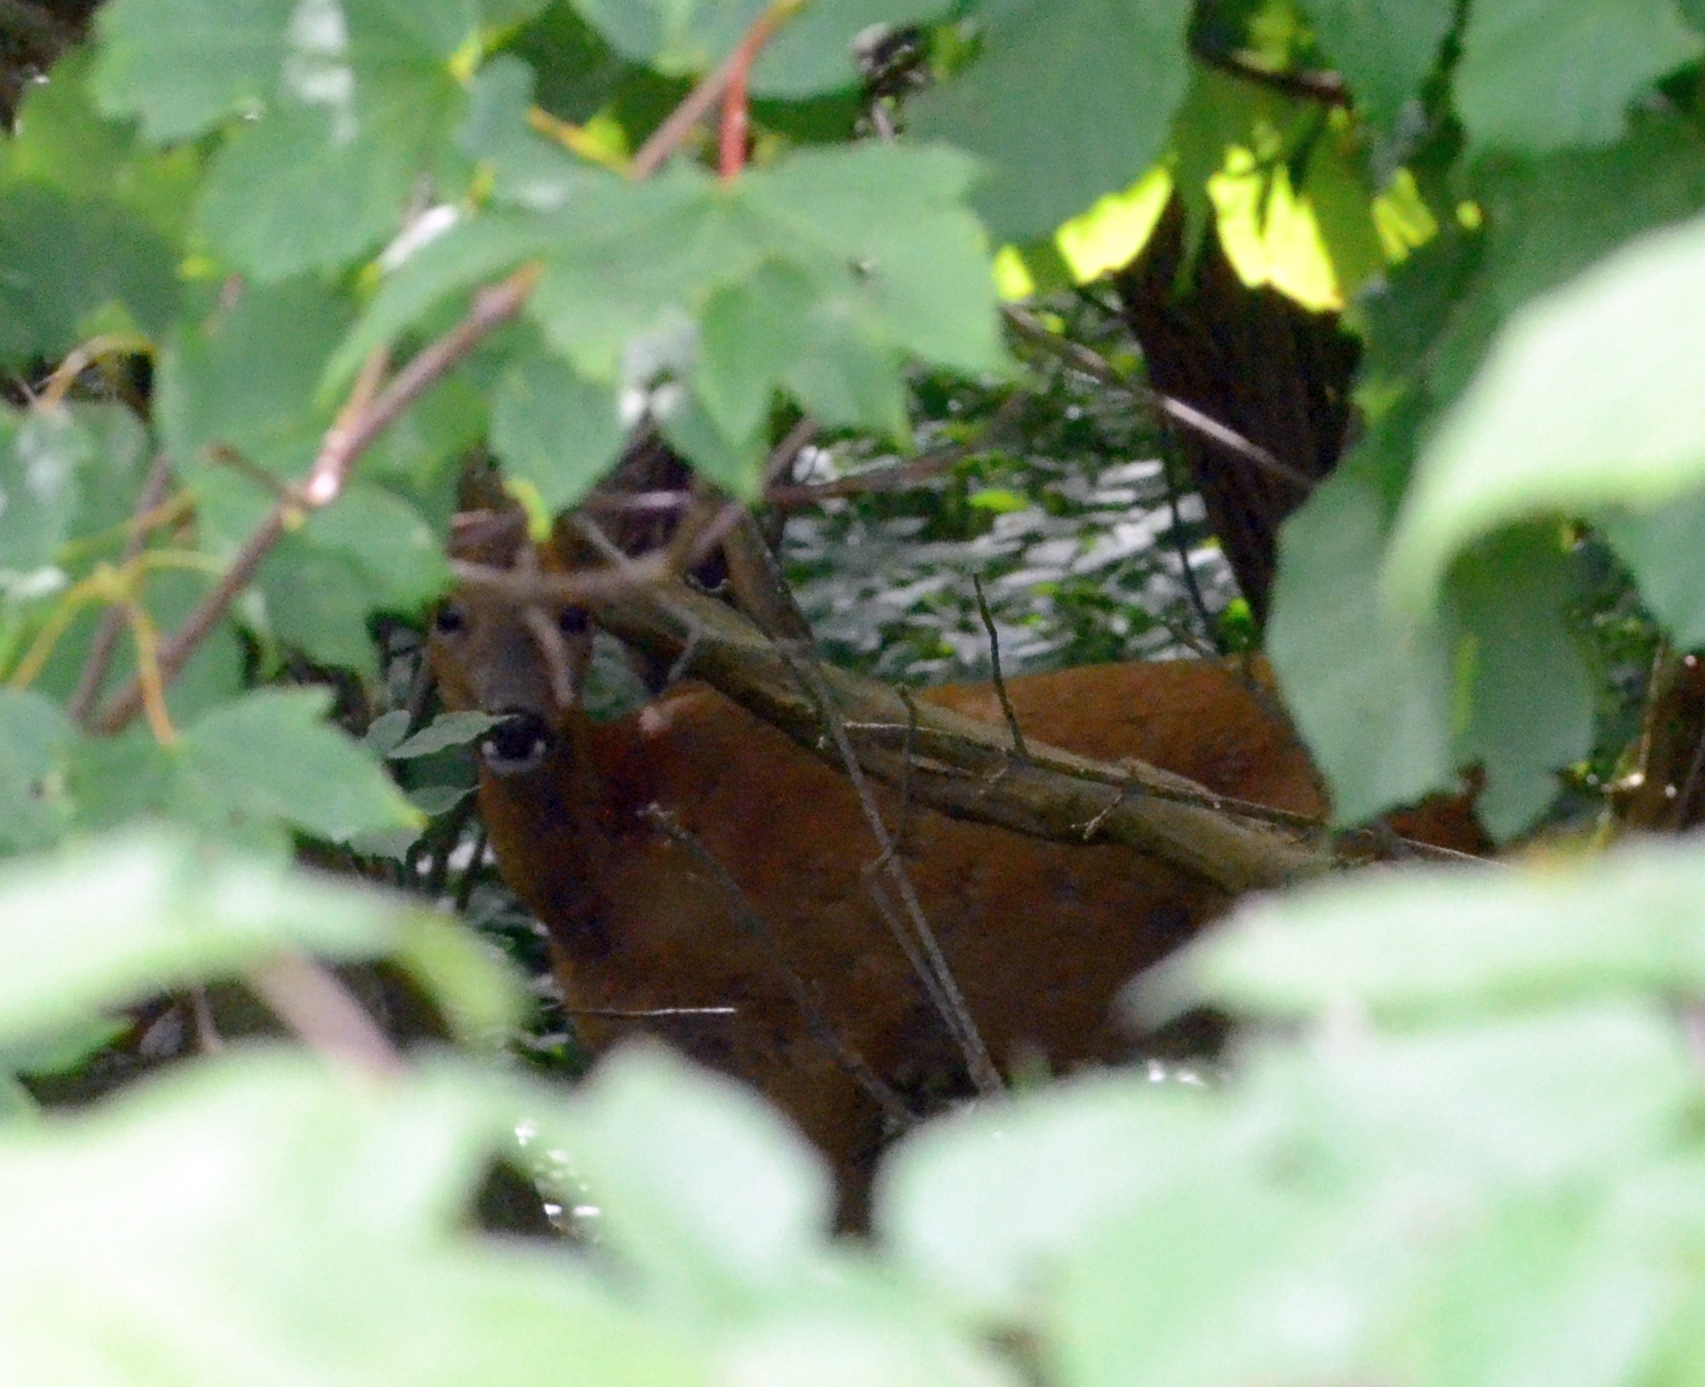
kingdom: Animalia
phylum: Chordata
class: Mammalia
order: Artiodactyla
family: Cervidae
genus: Capreolus
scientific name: Capreolus capreolus
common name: Western roe deer
